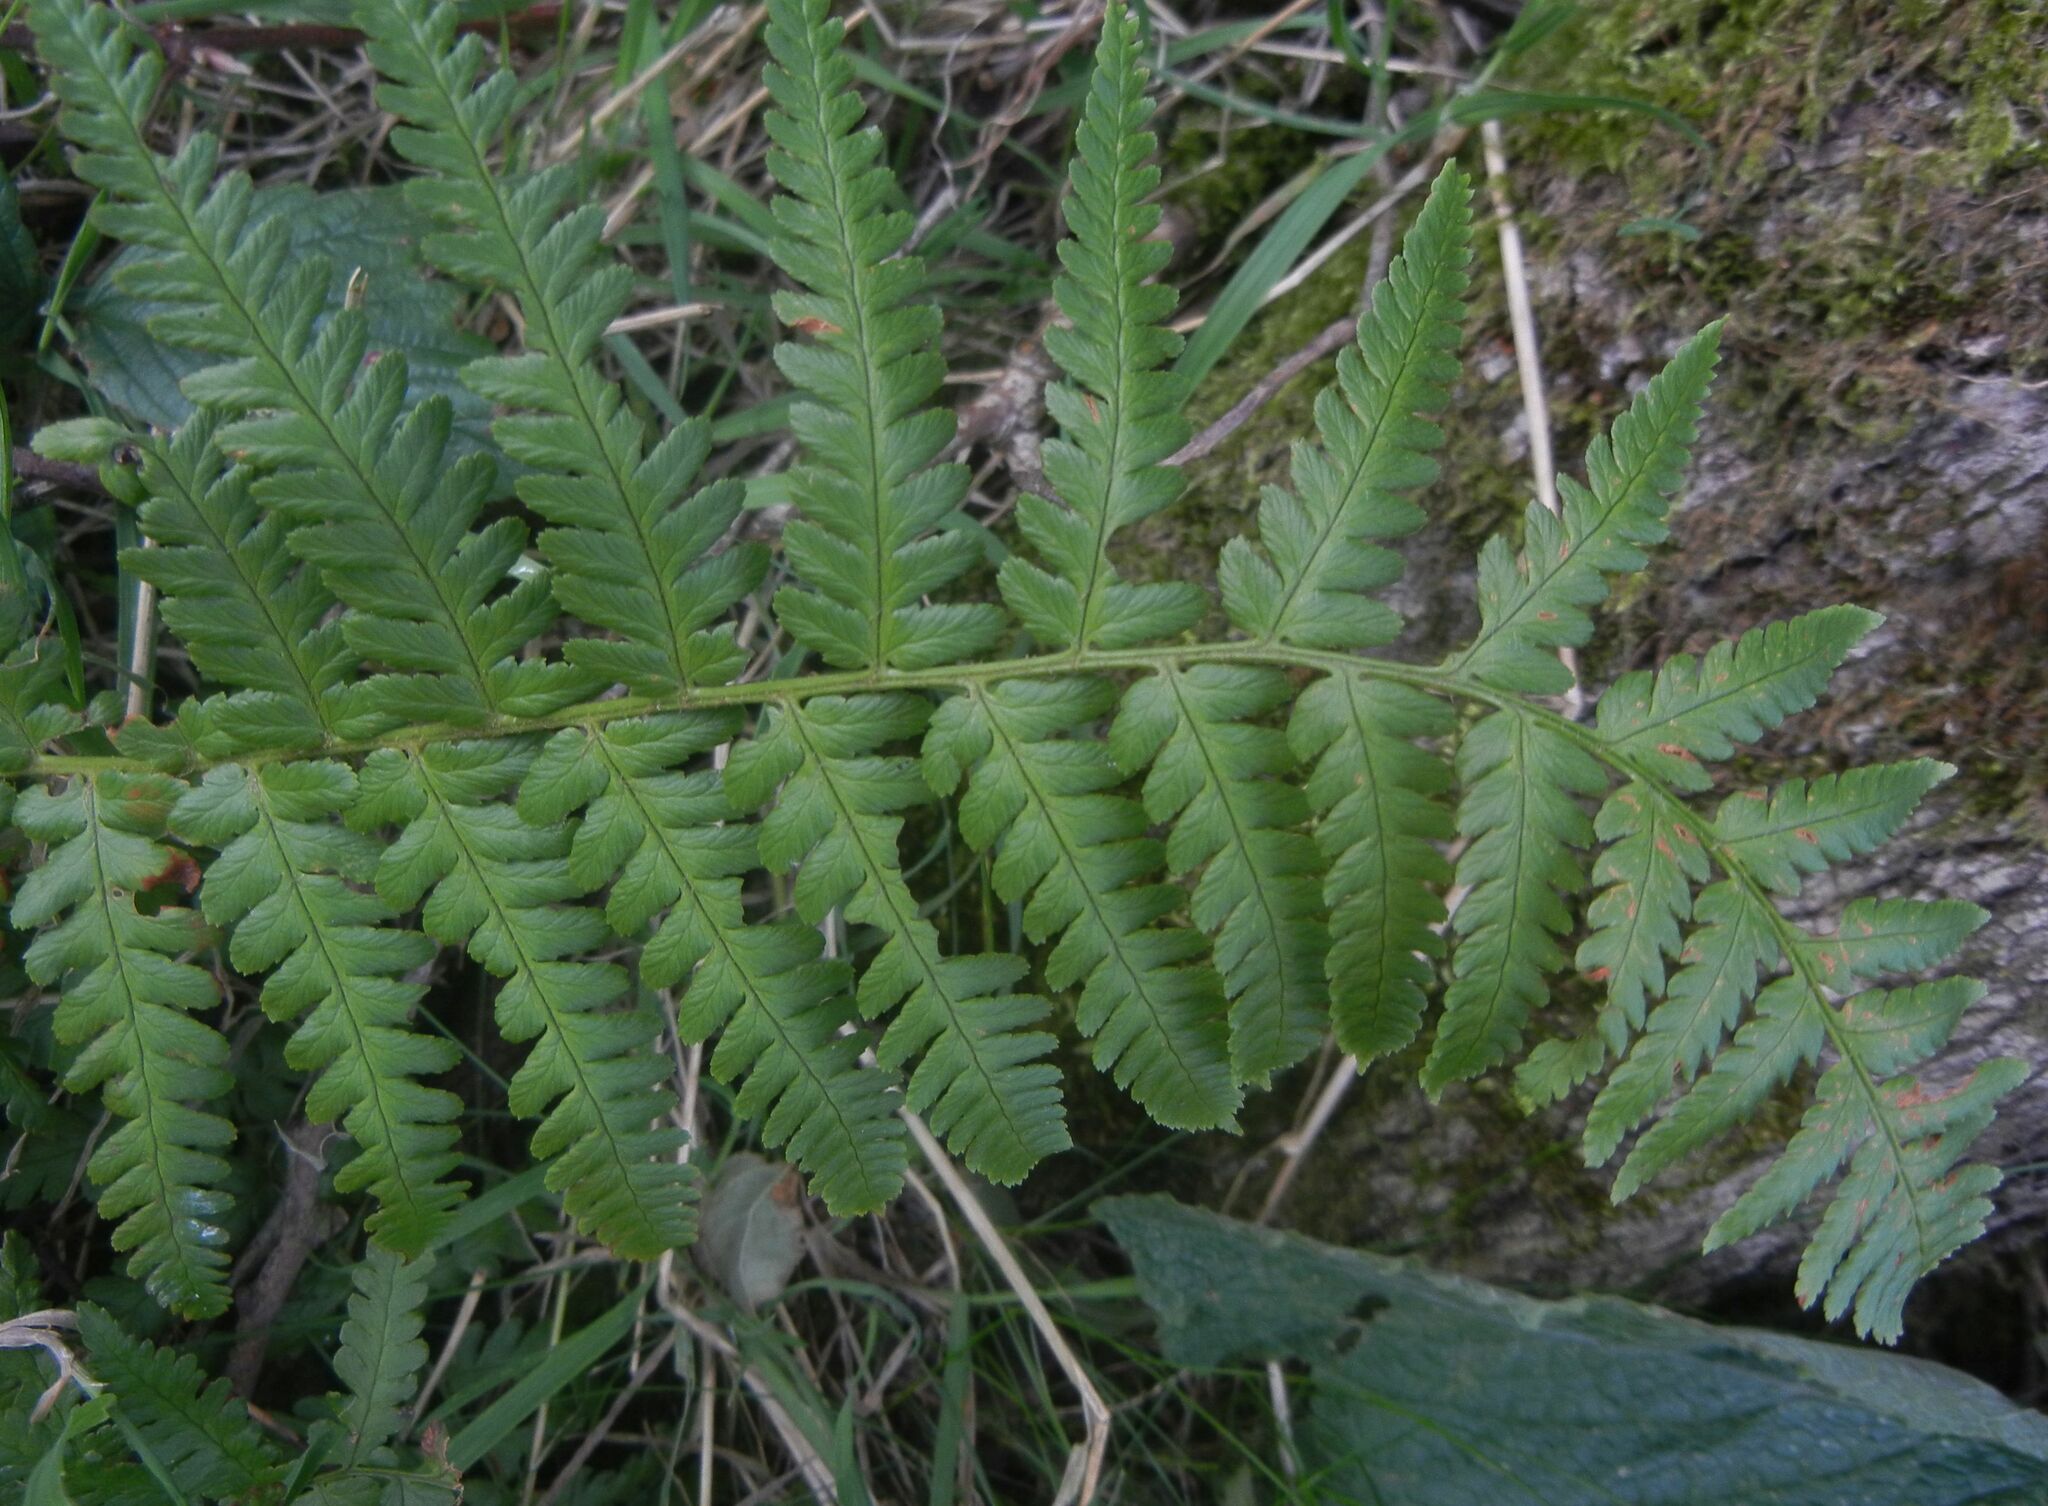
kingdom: Plantae
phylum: Tracheophyta
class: Polypodiopsida
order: Polypodiales
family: Dryopteridaceae
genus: Dryopteris
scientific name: Dryopteris filix-mas
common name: Male fern
